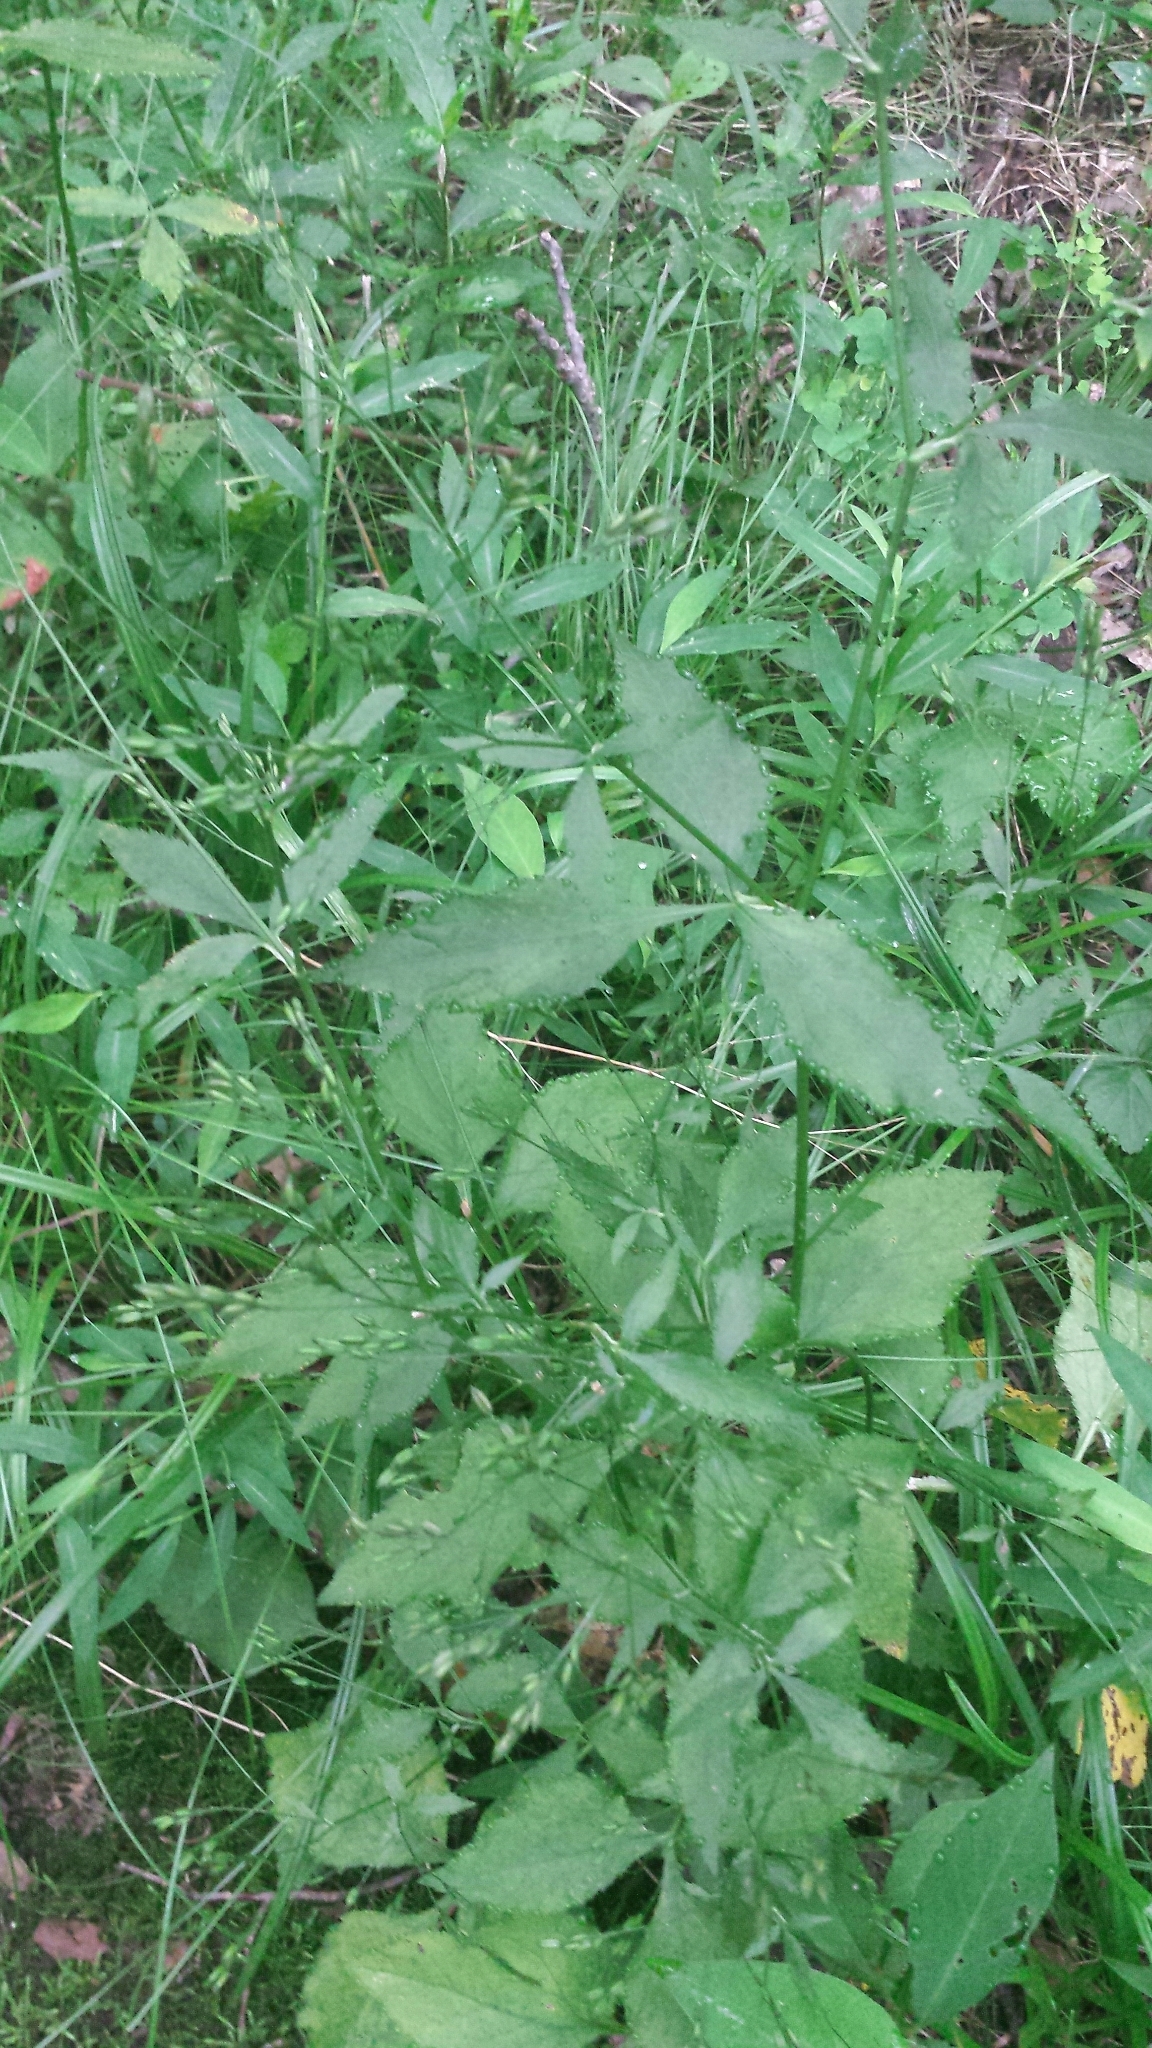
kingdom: Plantae
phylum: Tracheophyta
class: Magnoliopsida
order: Apiales
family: Apiaceae
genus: Cryptotaenia
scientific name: Cryptotaenia canadensis
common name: Honewort
